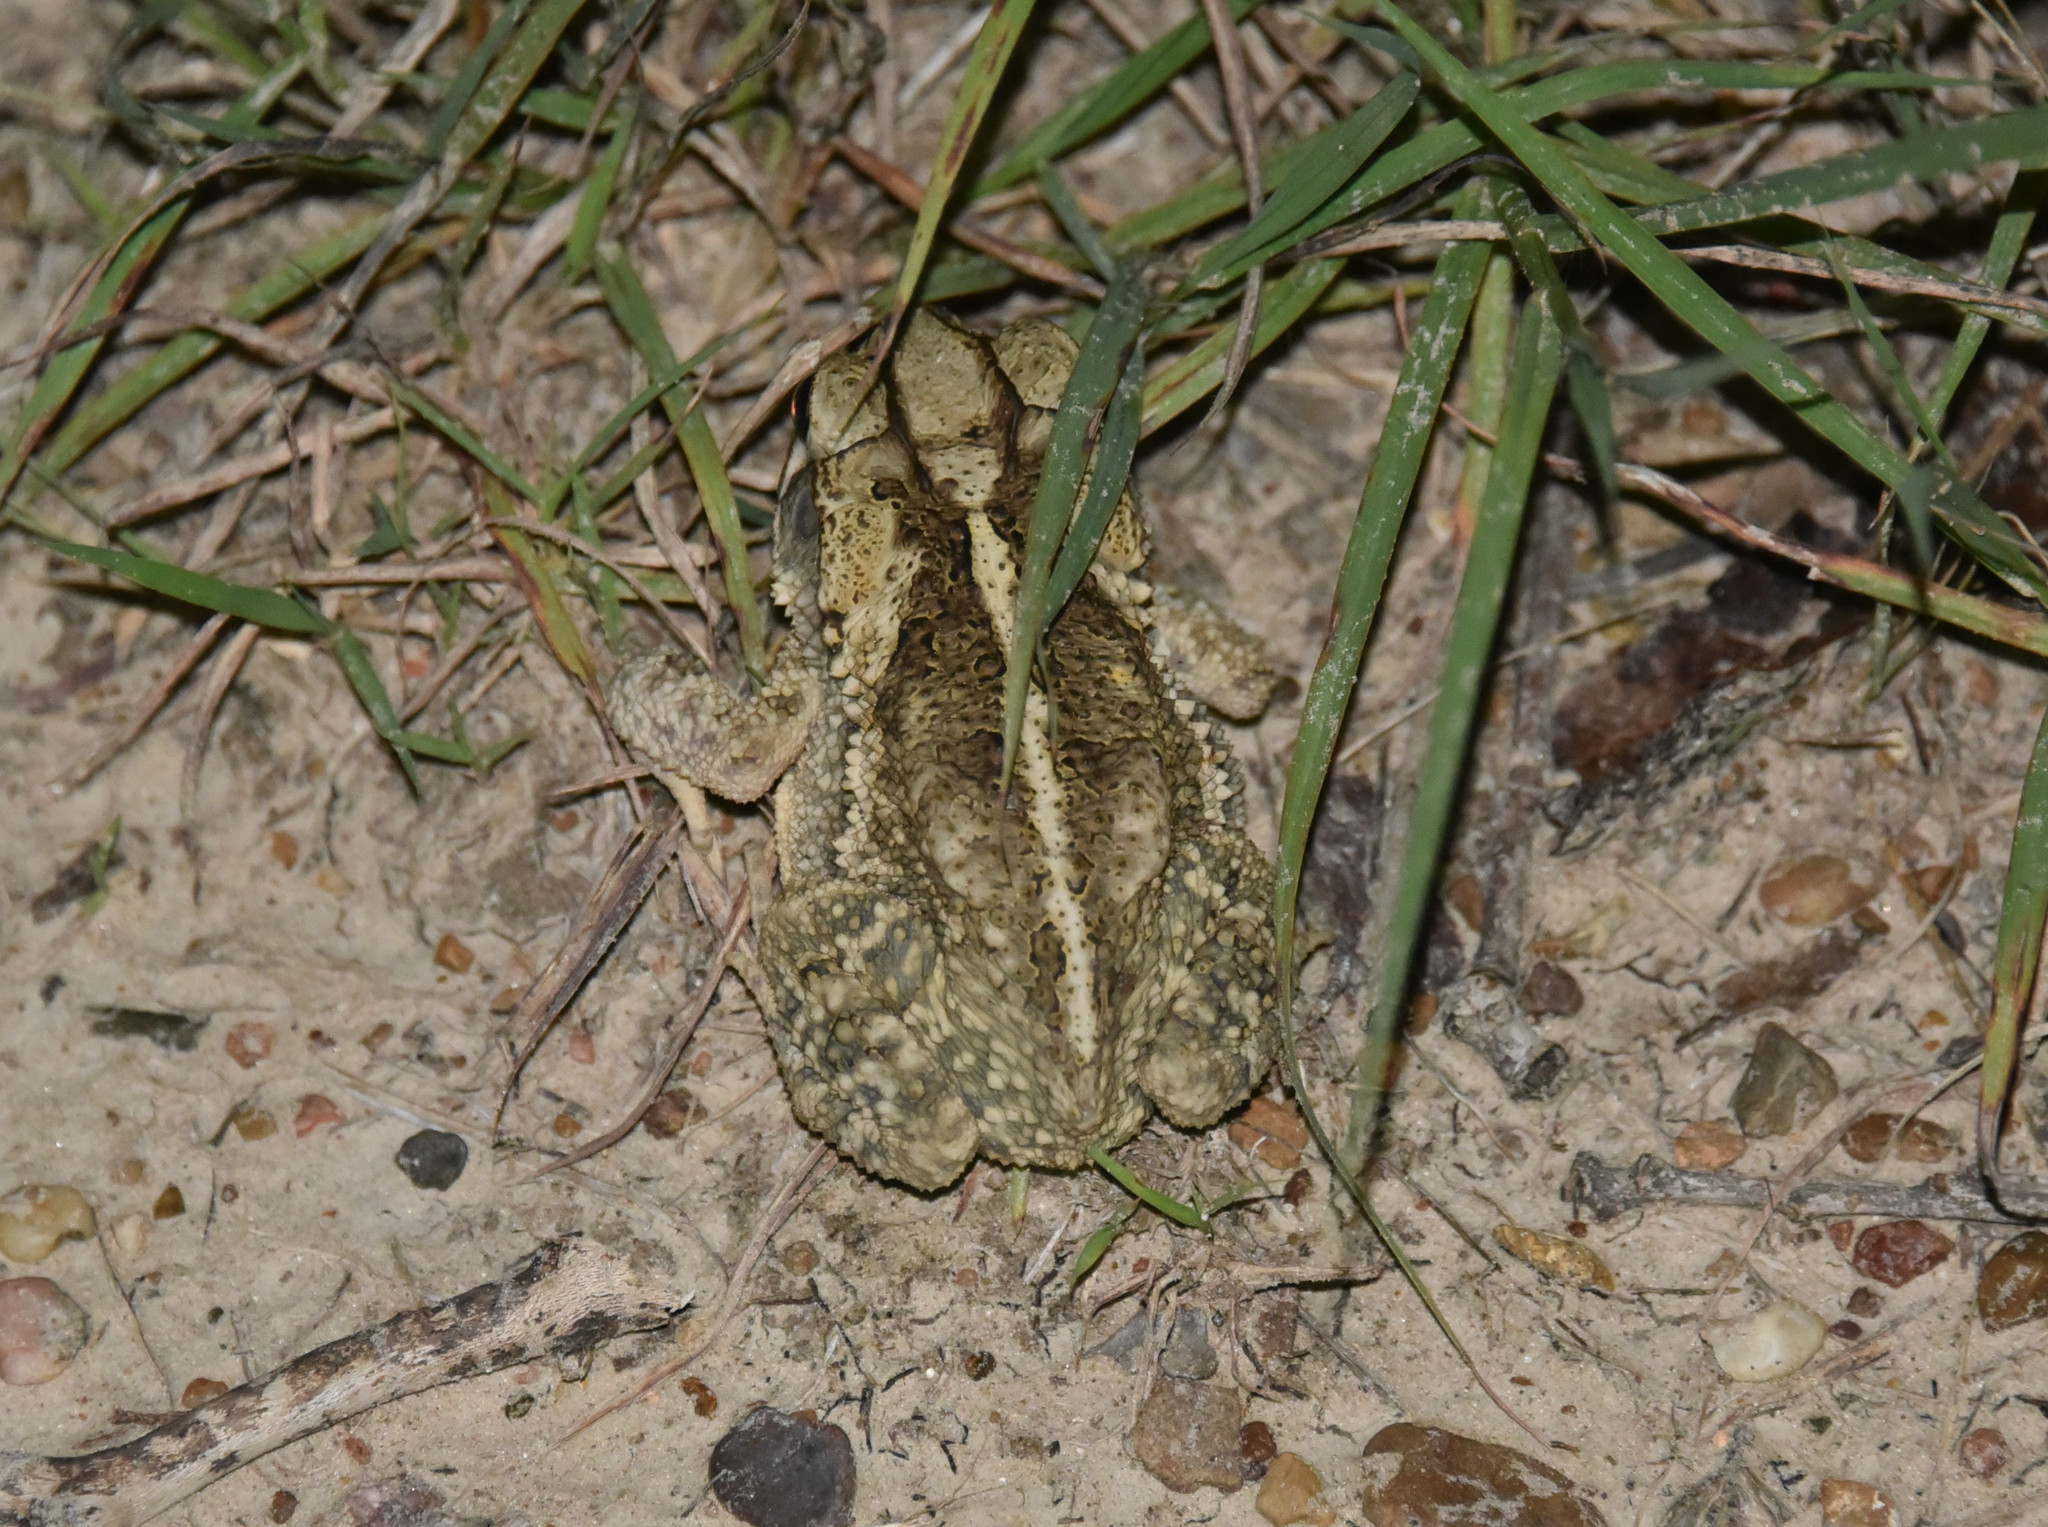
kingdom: Animalia
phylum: Chordata
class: Amphibia
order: Anura
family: Bufonidae
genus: Incilius
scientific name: Incilius nebulifer
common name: Gulf coast toad
